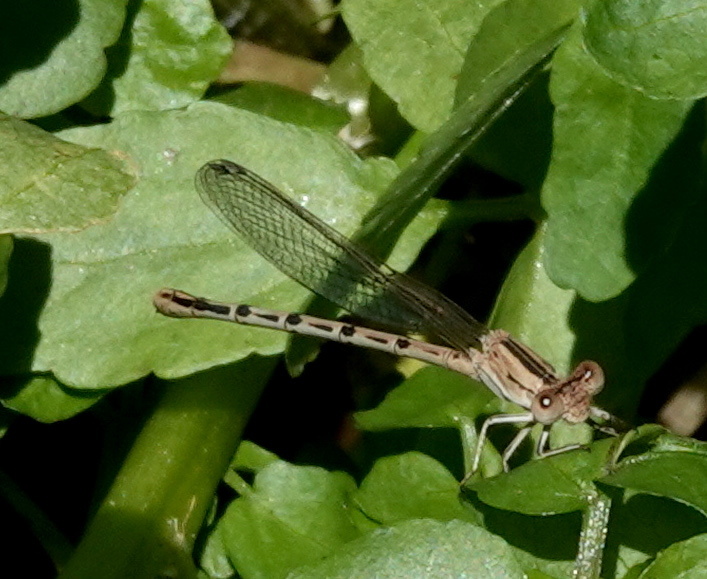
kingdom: Animalia
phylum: Arthropoda
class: Insecta
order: Odonata
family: Coenagrionidae
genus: Argia
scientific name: Argia nahuana
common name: Aztec dancer
